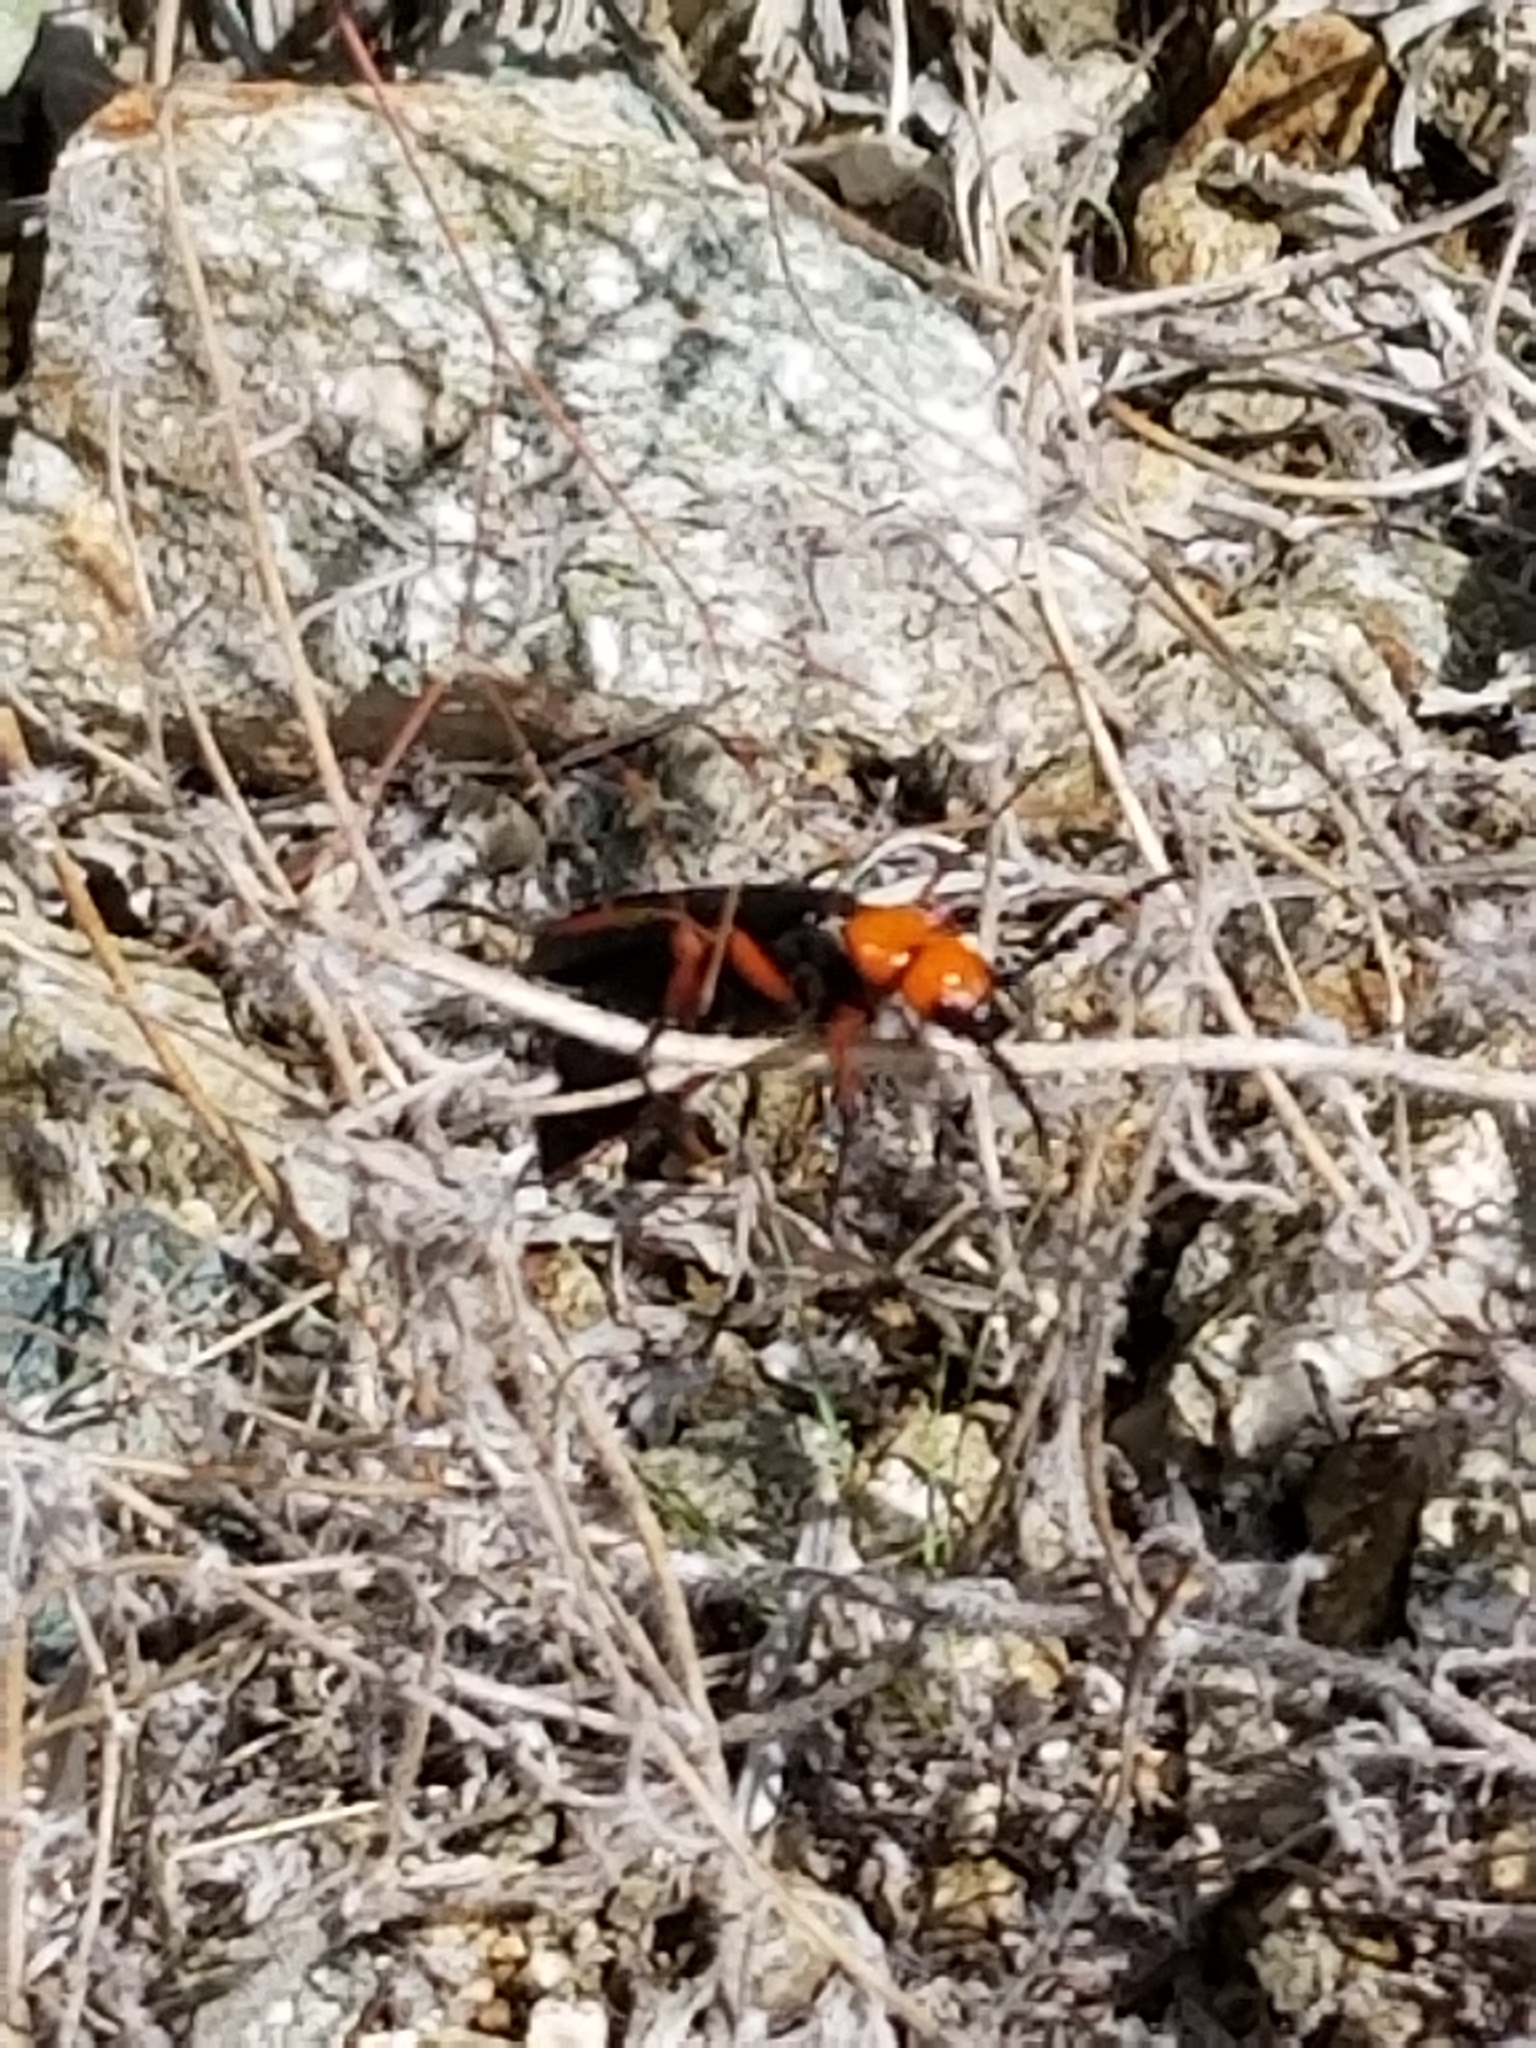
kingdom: Animalia
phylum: Arthropoda
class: Insecta
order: Coleoptera
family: Meloidae
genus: Lytta
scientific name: Lytta magister
